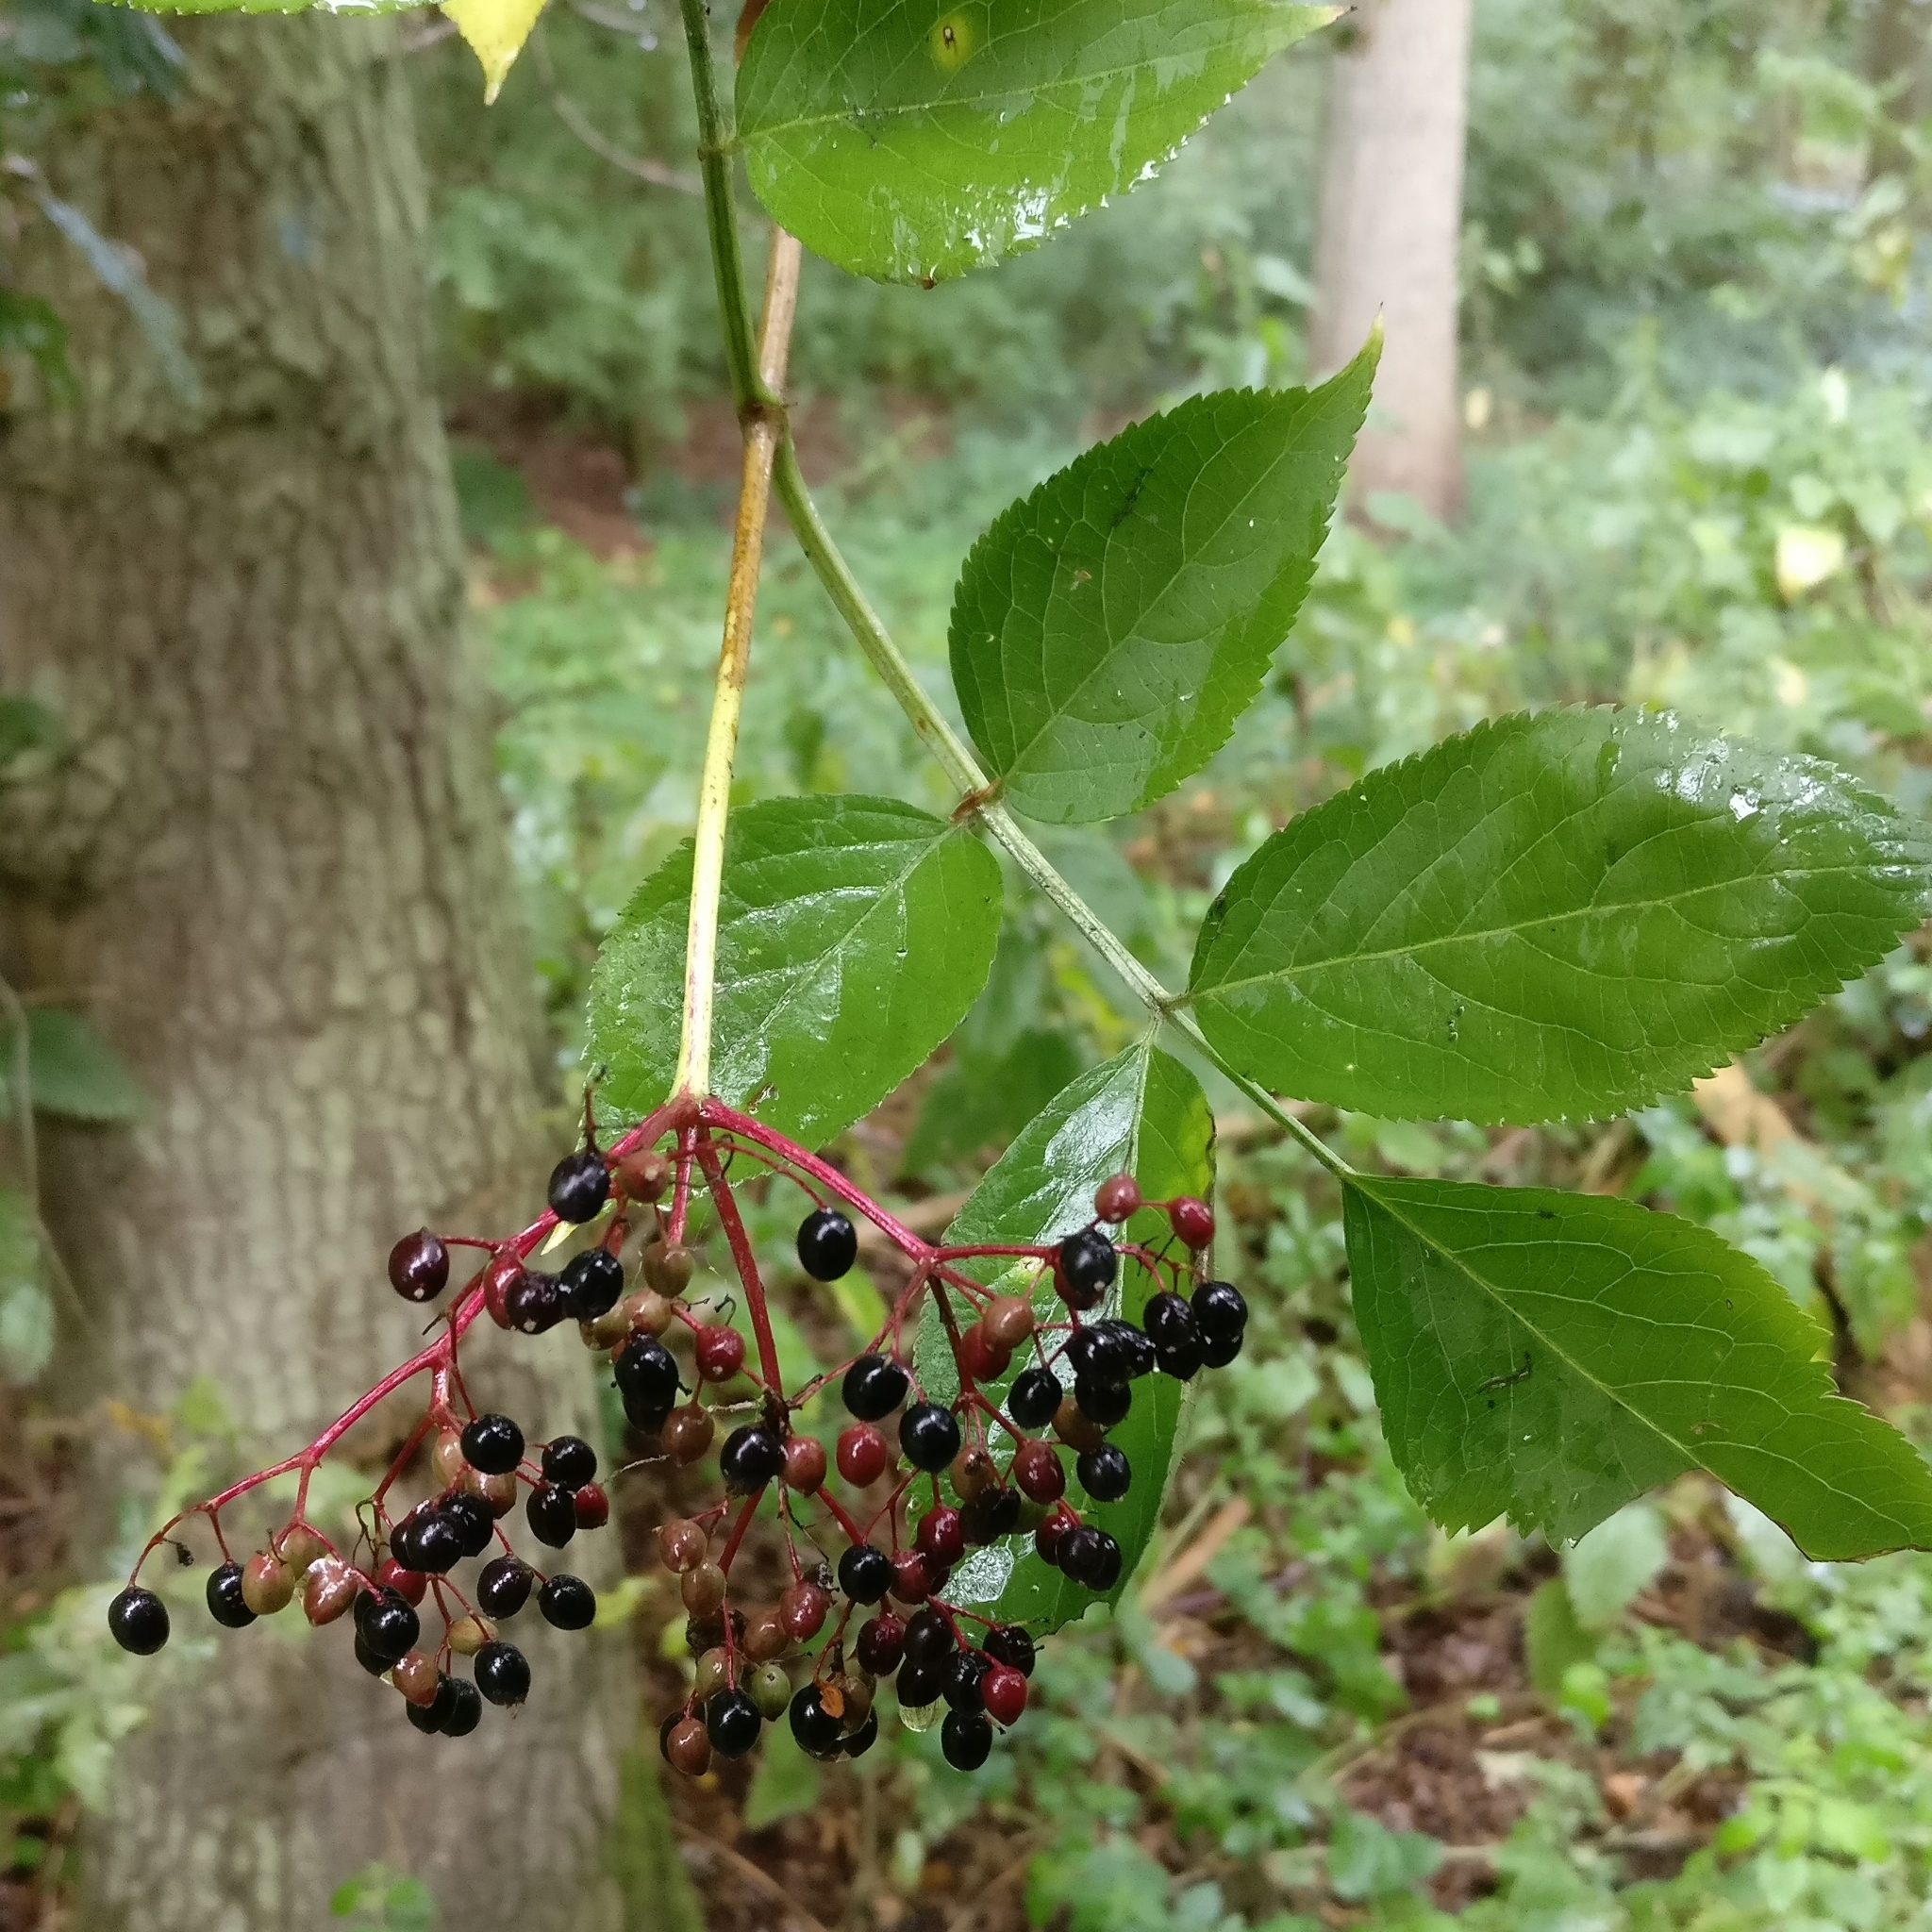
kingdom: Plantae
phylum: Tracheophyta
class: Magnoliopsida
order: Dipsacales
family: Viburnaceae
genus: Sambucus
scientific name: Sambucus nigra
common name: Elder
